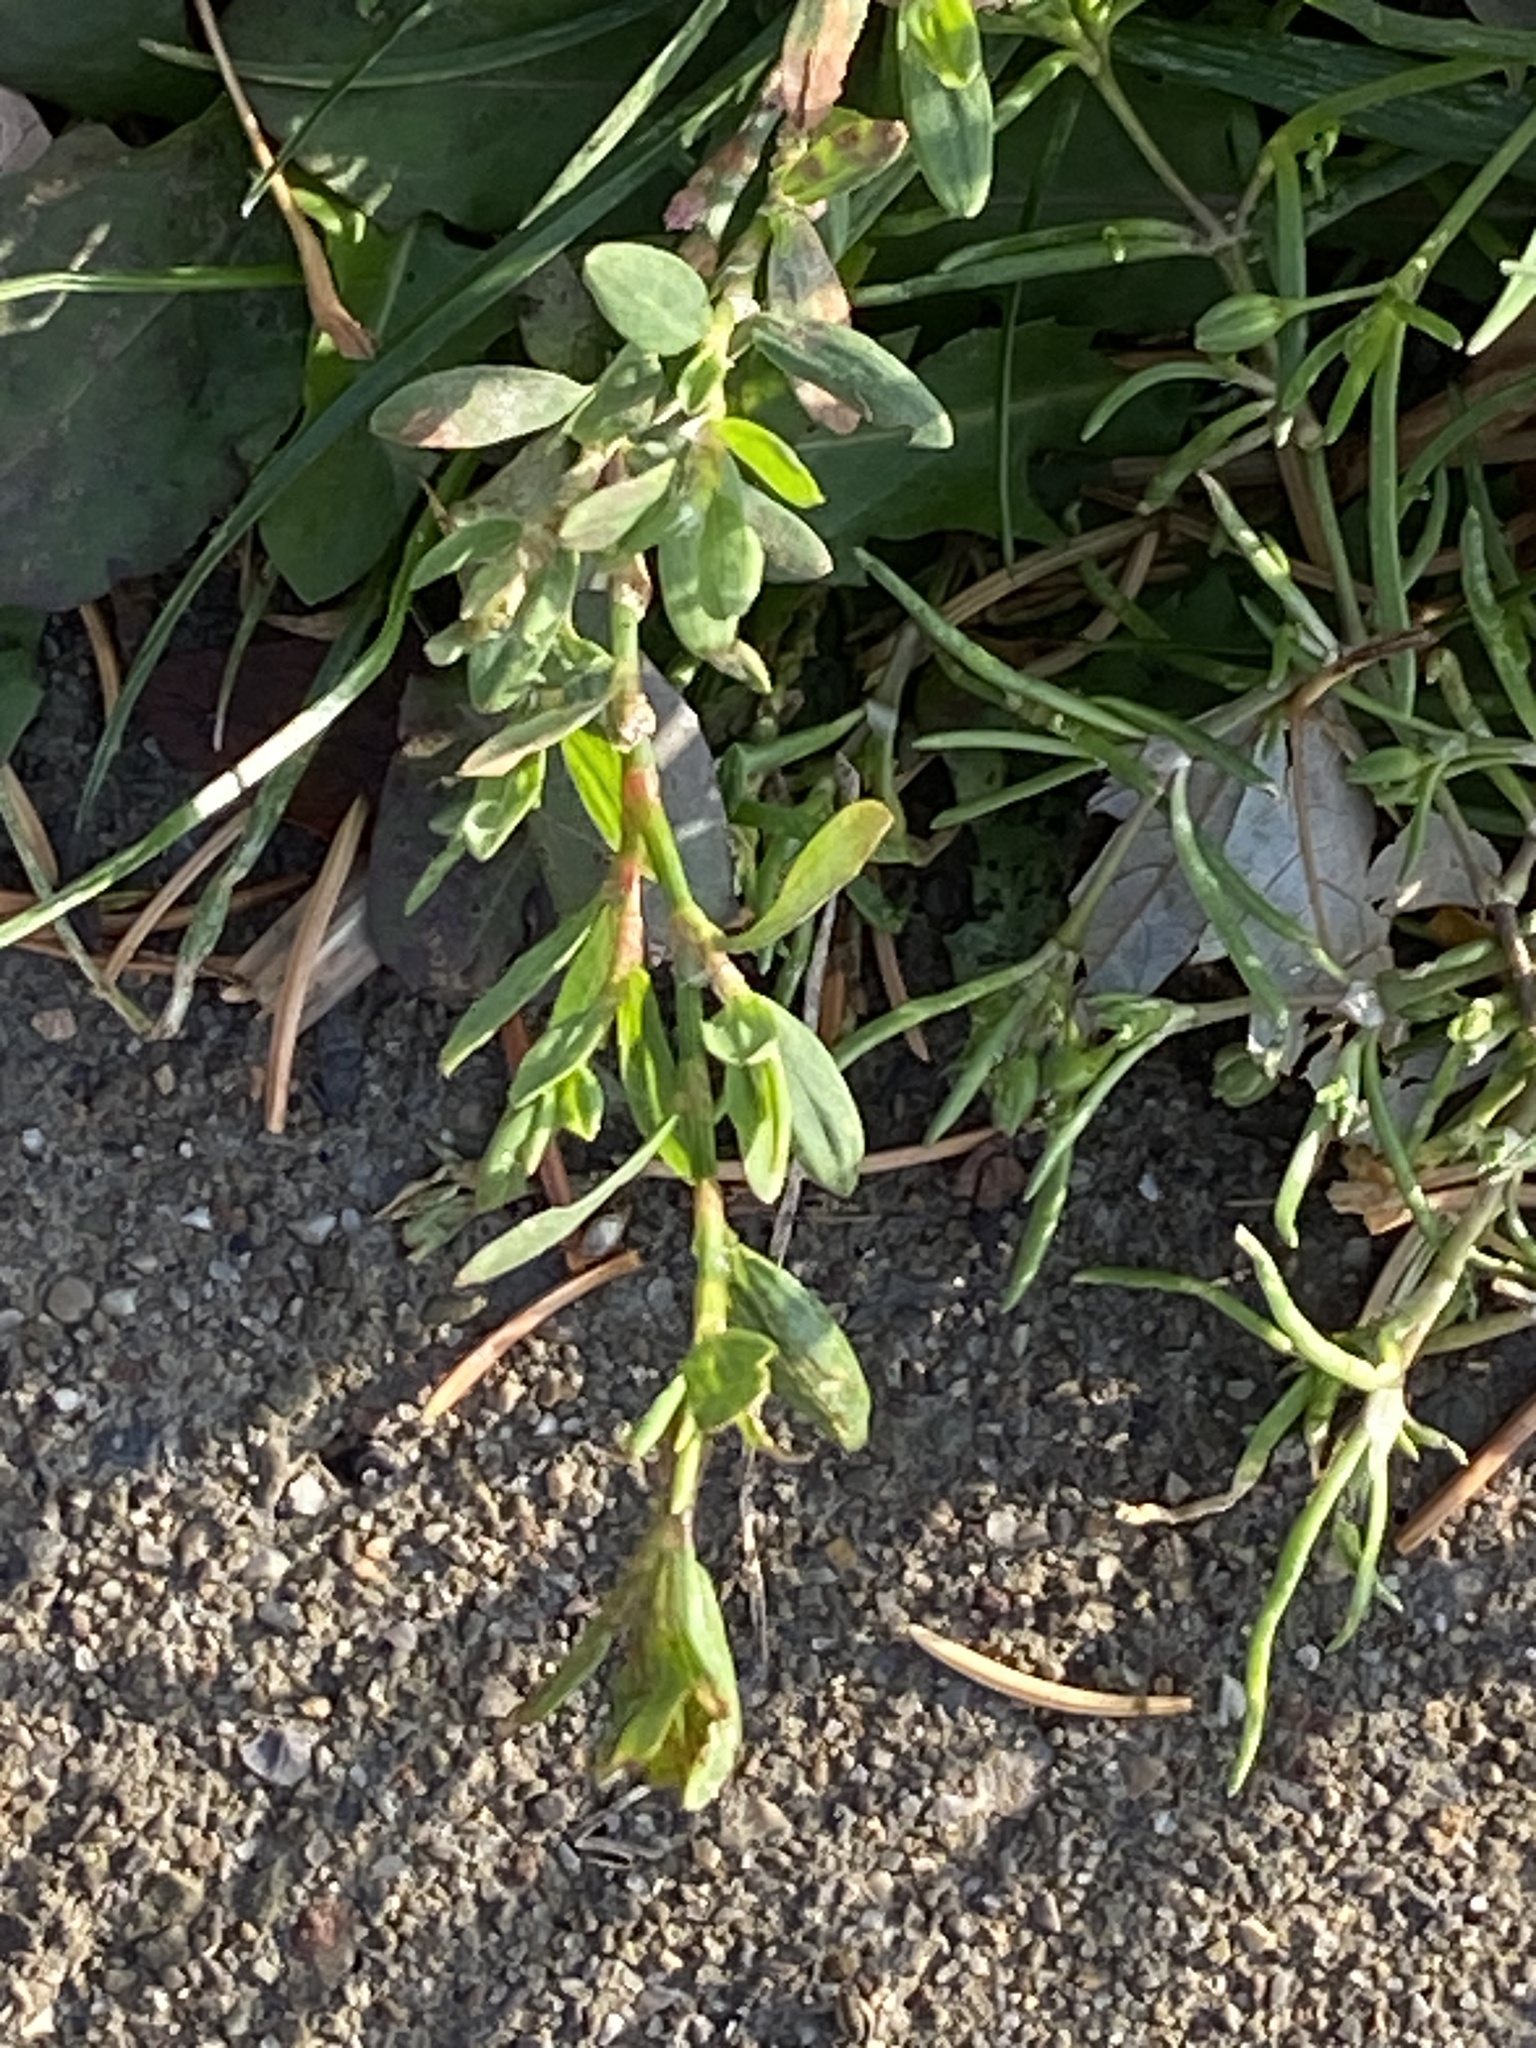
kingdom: Plantae
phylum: Tracheophyta
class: Magnoliopsida
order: Caryophyllales
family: Polygonaceae
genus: Polygonum
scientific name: Polygonum aviculare
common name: Prostrate knotweed
